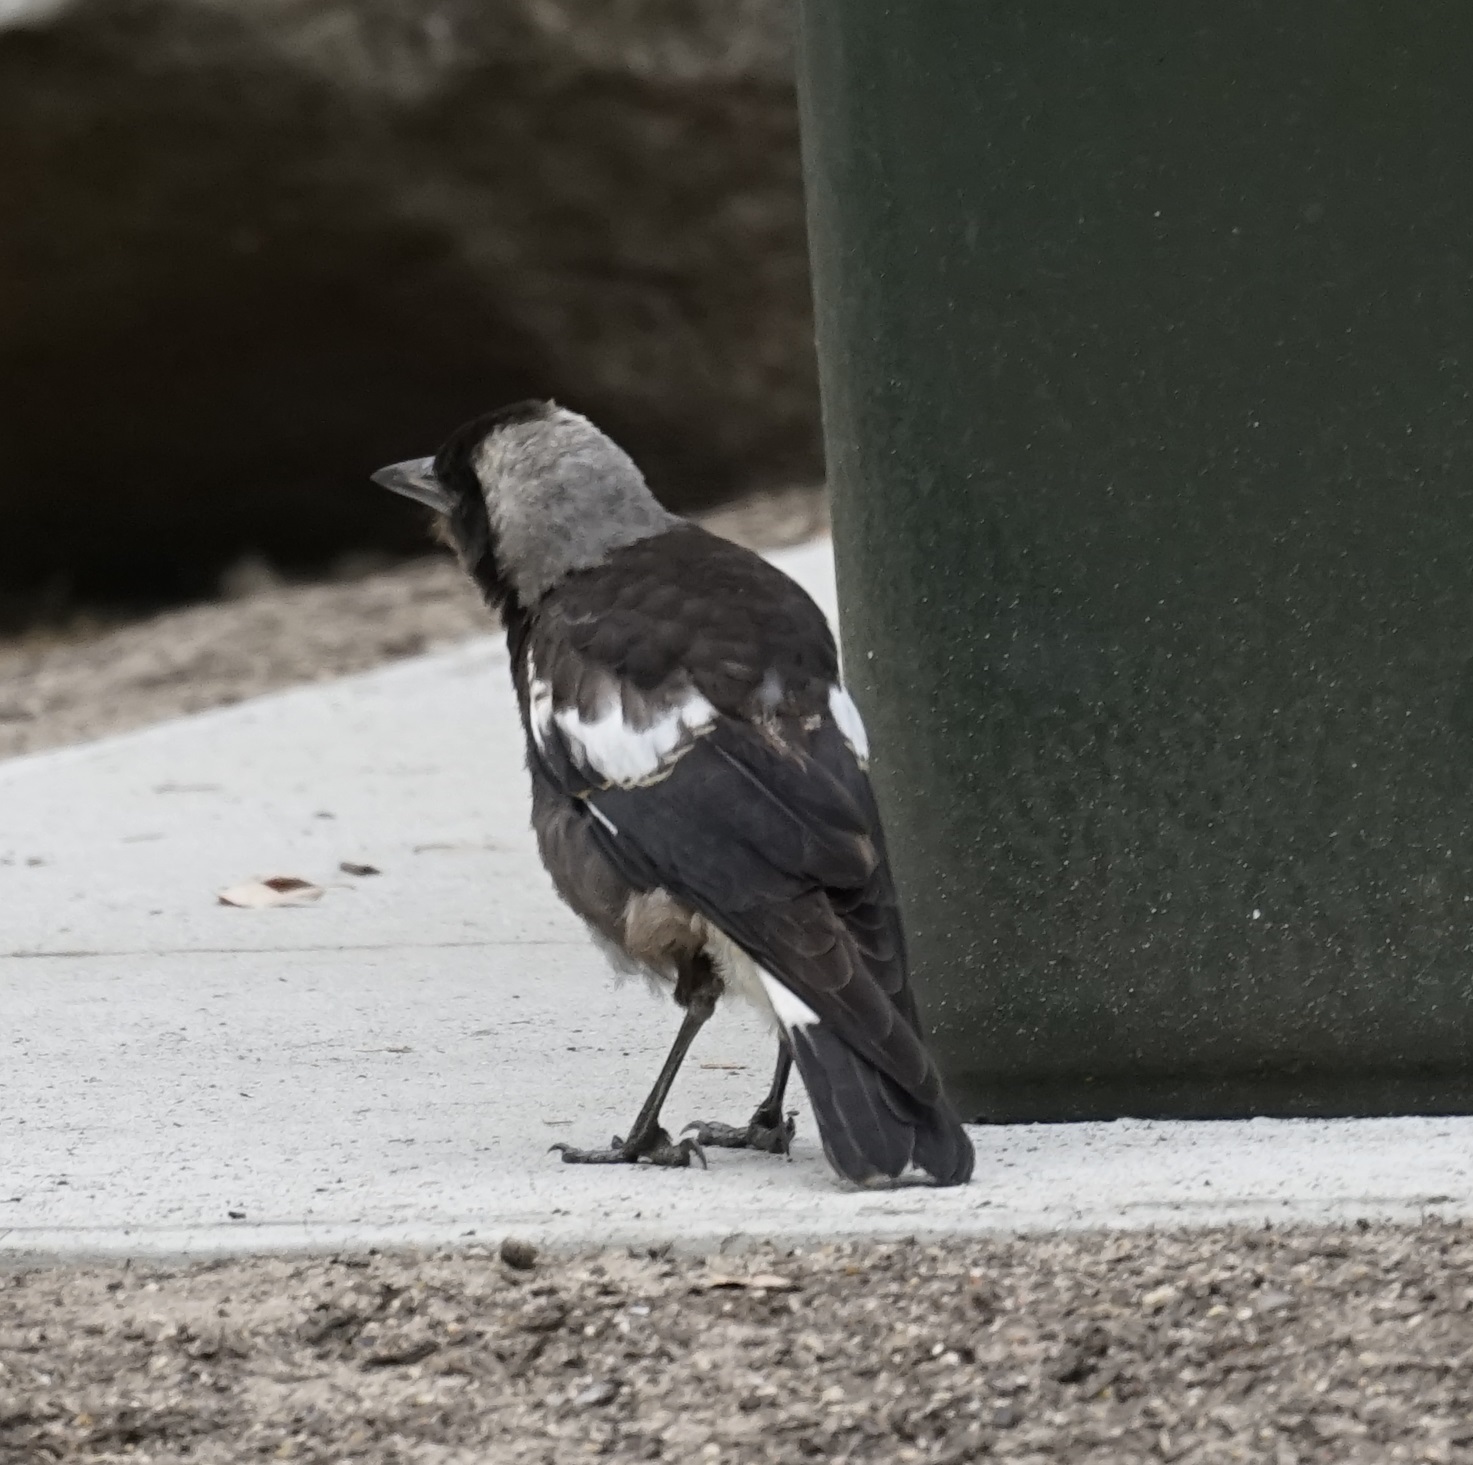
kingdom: Animalia
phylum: Chordata
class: Aves
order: Passeriformes
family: Cracticidae
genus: Gymnorhina
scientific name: Gymnorhina tibicen
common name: Australian magpie
